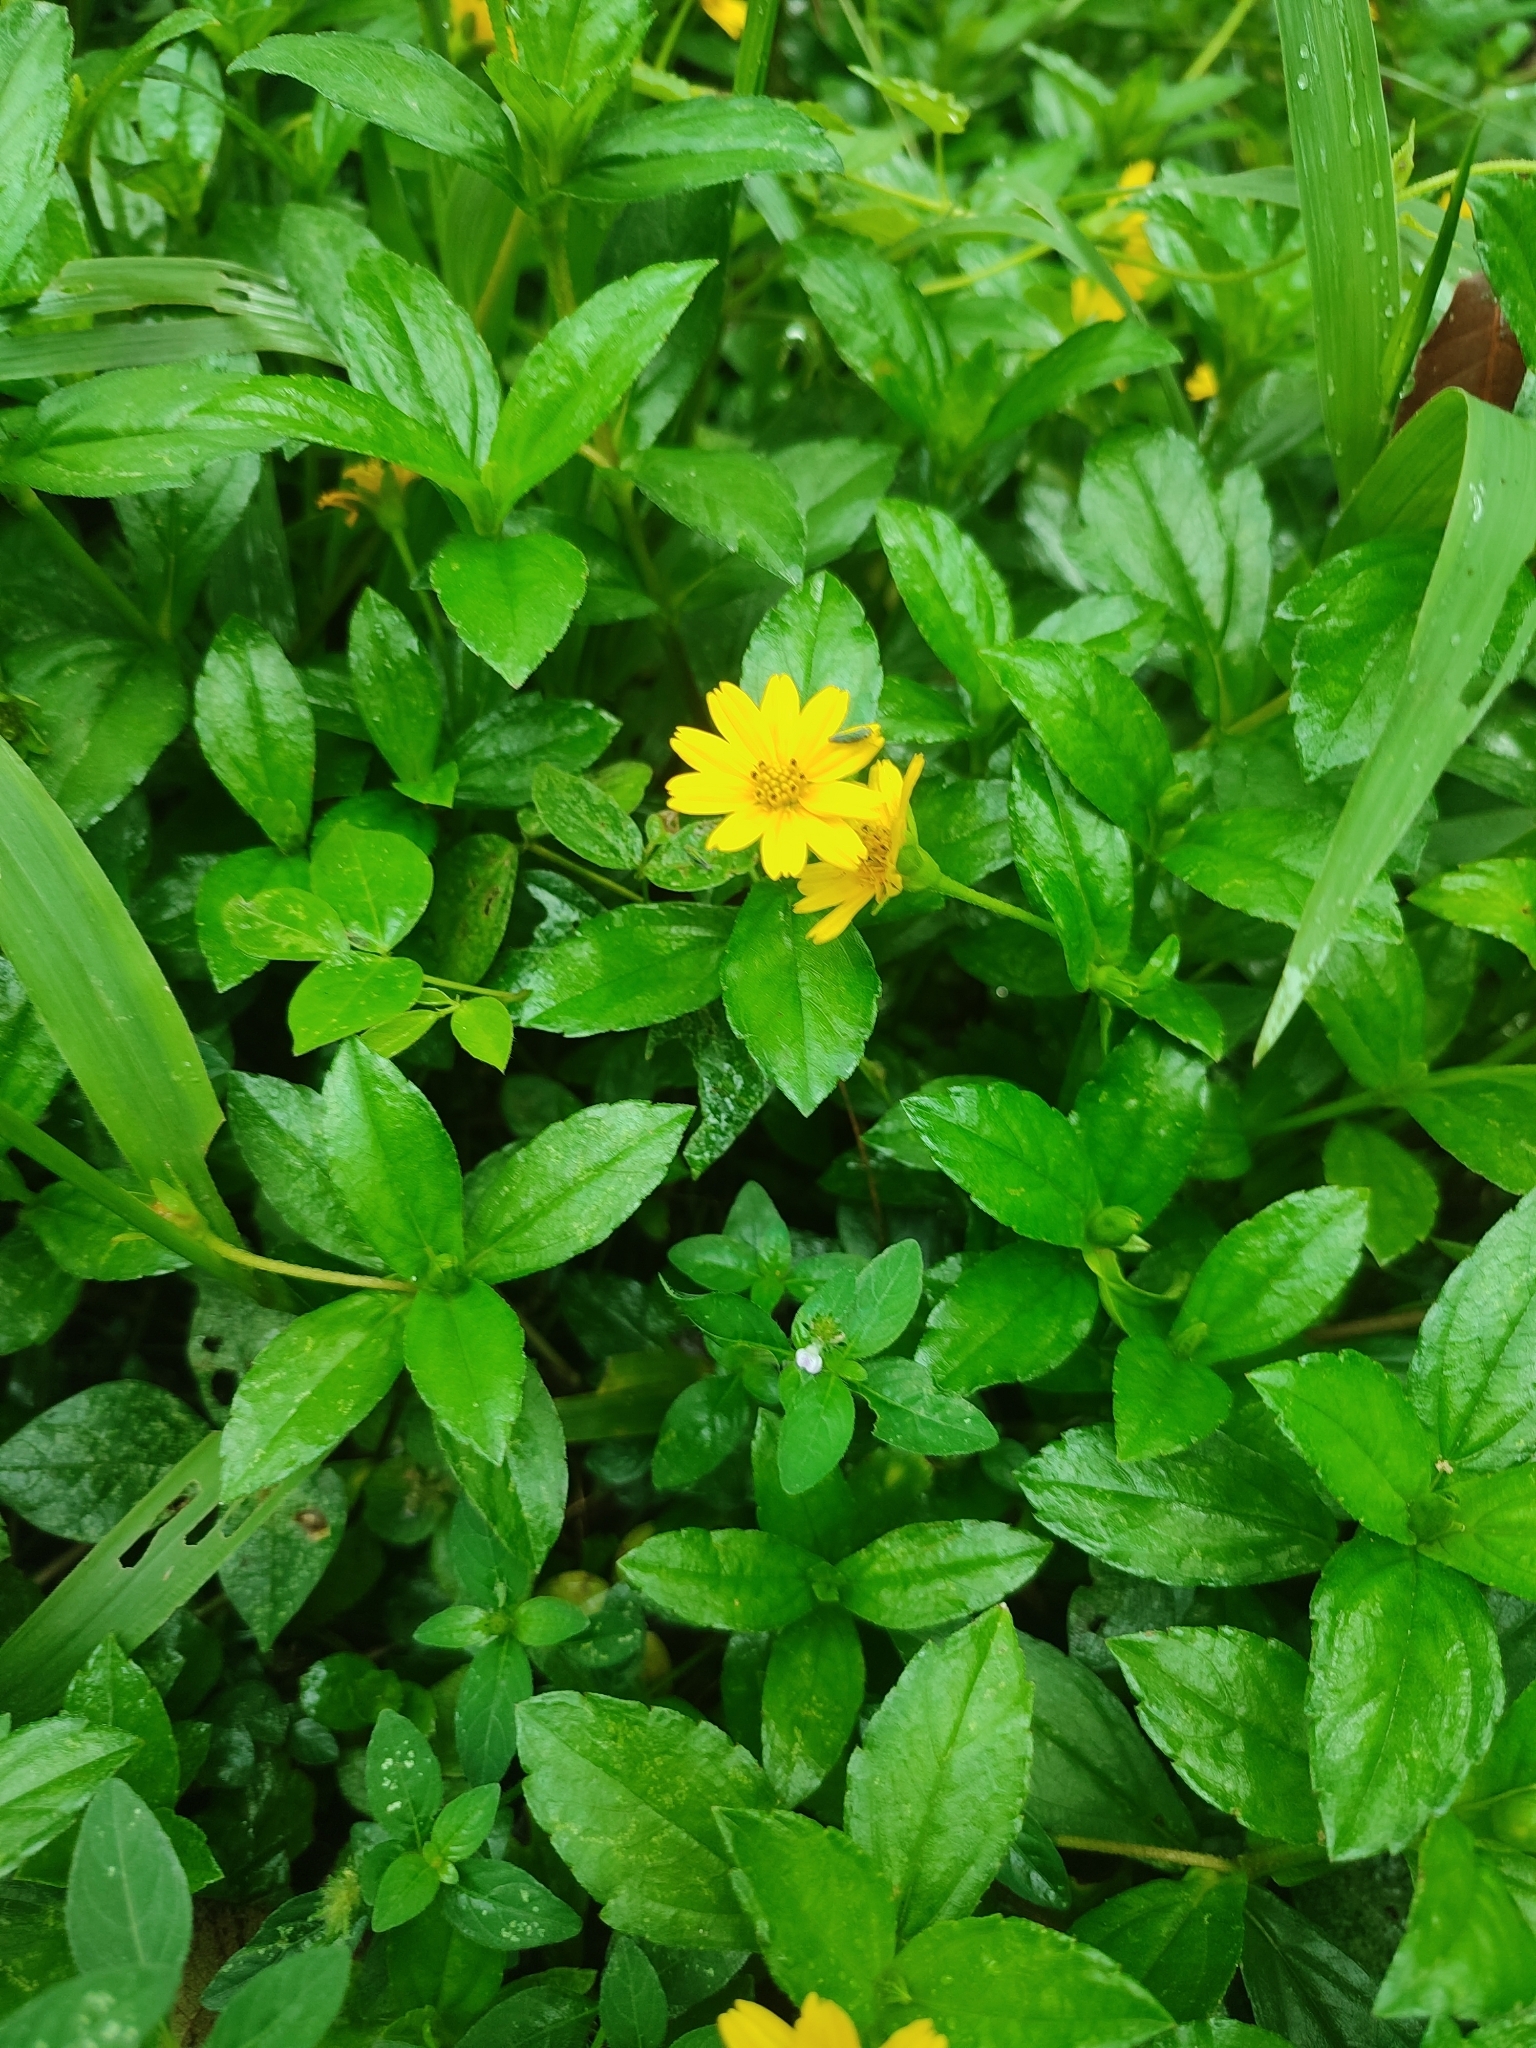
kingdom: Plantae
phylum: Tracheophyta
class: Magnoliopsida
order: Asterales
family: Asteraceae
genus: Sphagneticola
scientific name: Sphagneticola trilobata
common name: Bay biscayne creeping-oxeye
